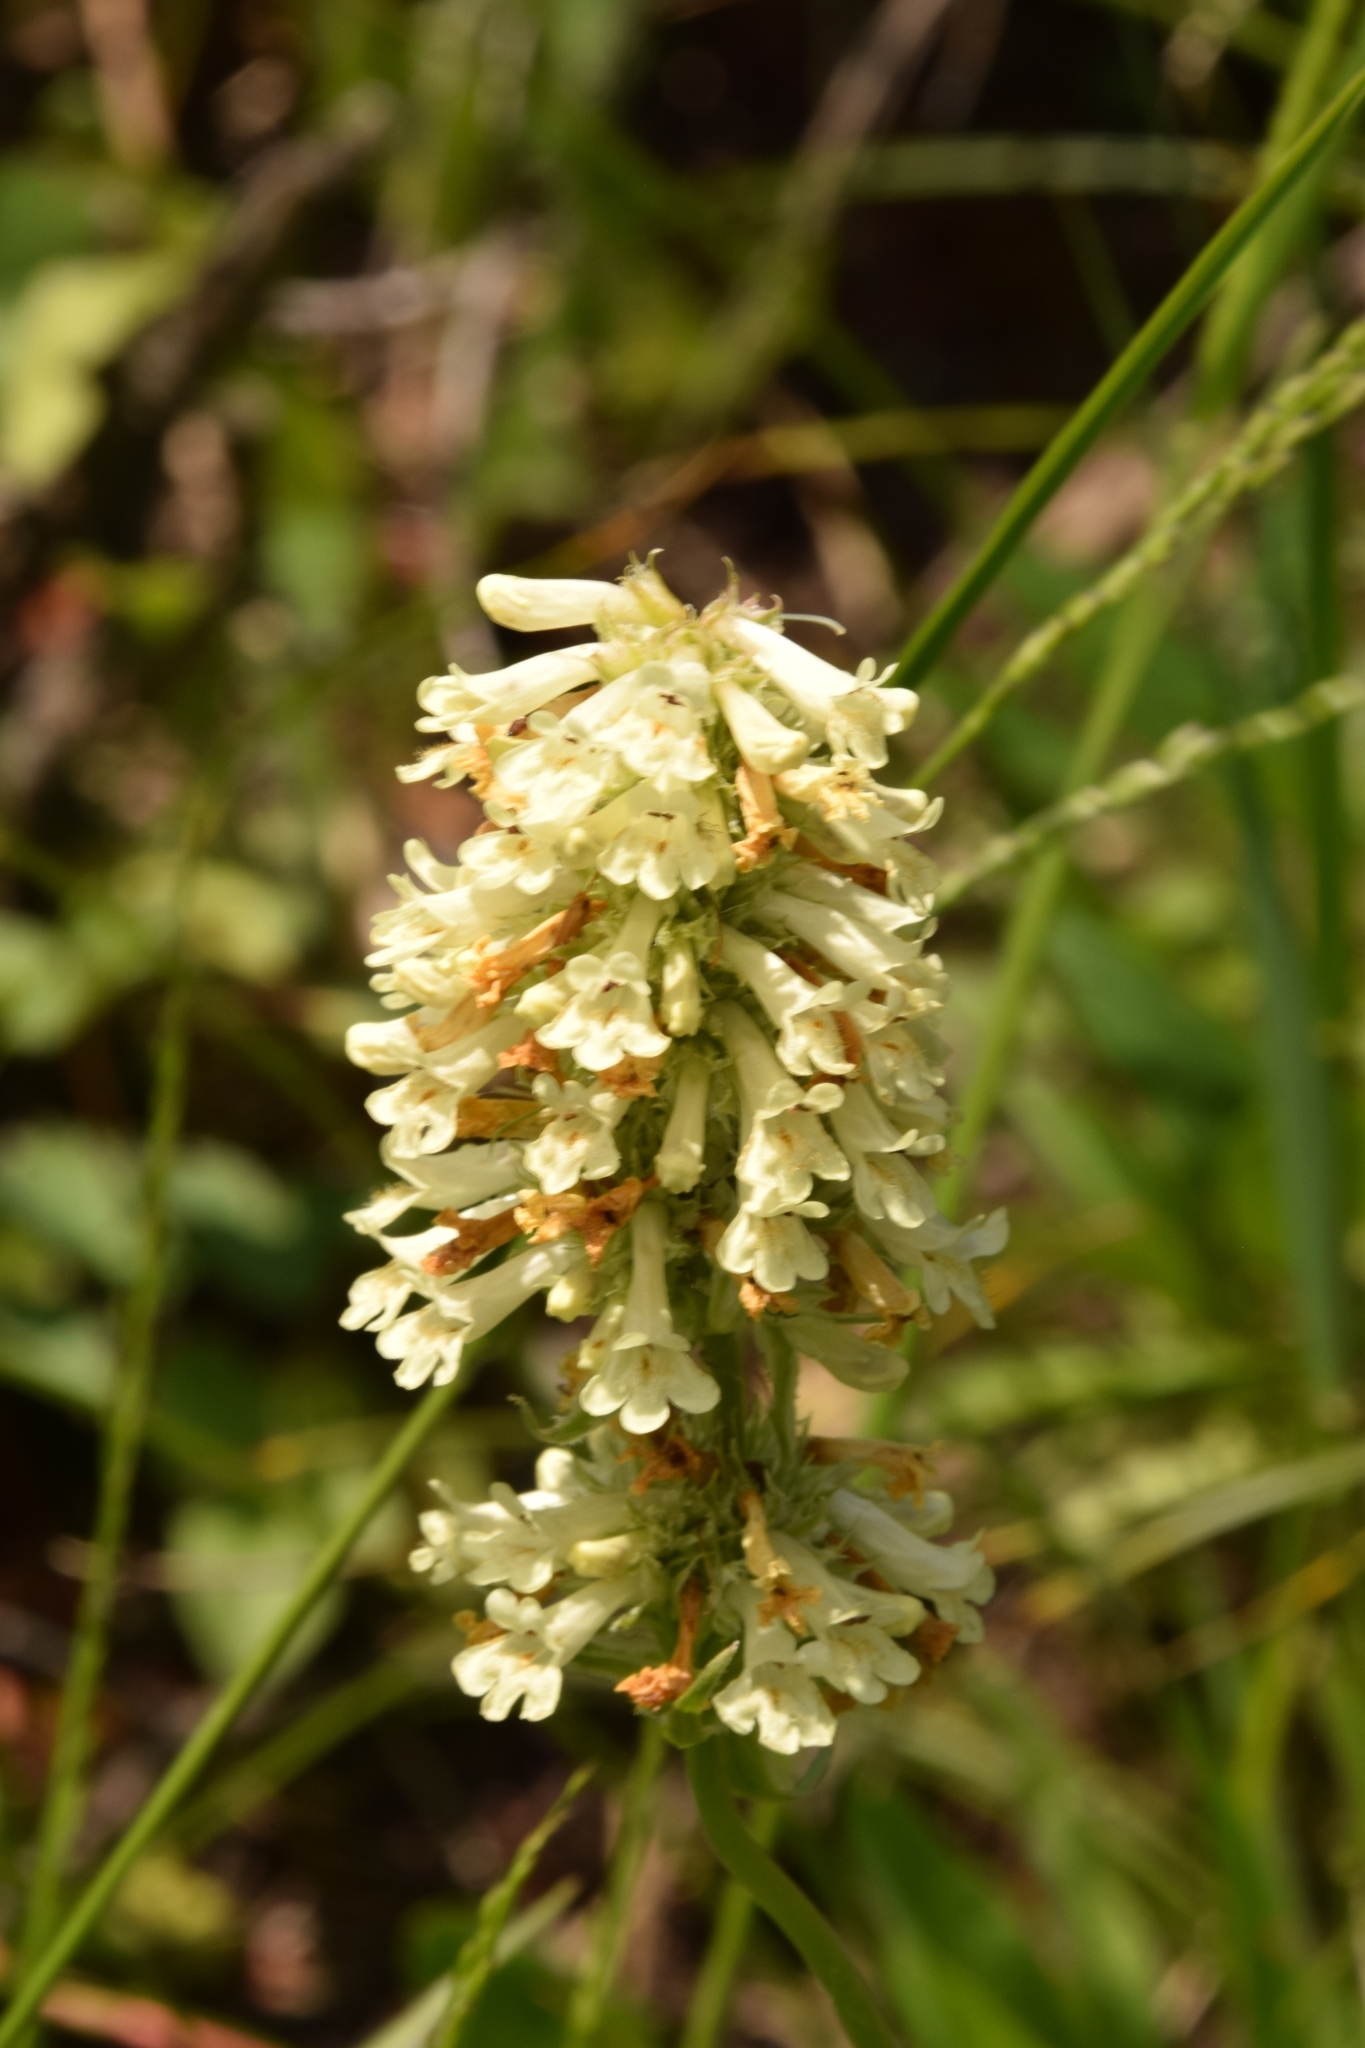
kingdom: Plantae
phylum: Tracheophyta
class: Magnoliopsida
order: Lamiales
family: Plantaginaceae
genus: Penstemon
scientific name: Penstemon confertus
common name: Lesser yellow beardtongue
